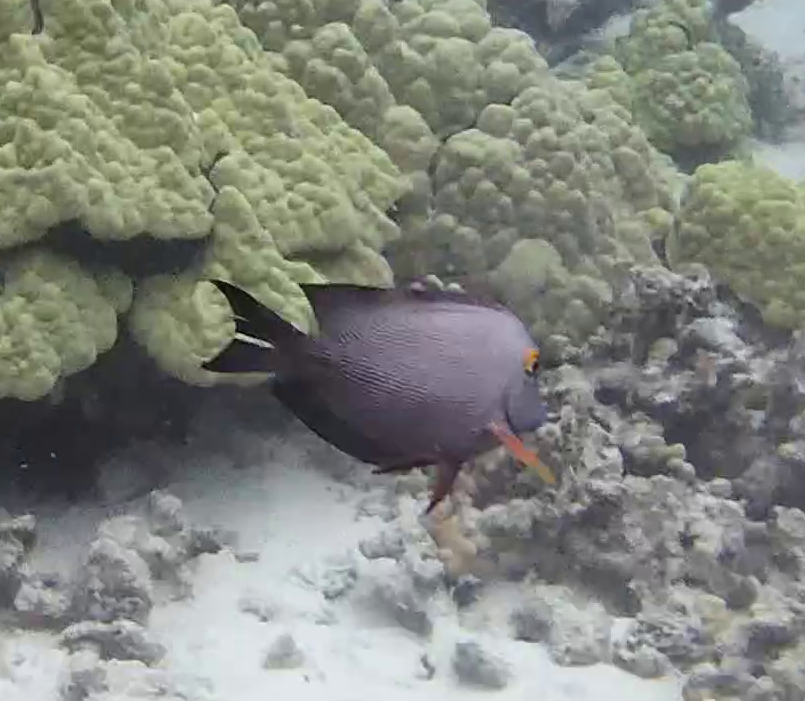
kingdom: Animalia
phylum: Chordata
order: Perciformes
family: Acanthuridae
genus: Ctenochaetus
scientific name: Ctenochaetus strigosus
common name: Bristletoothed surgeonfish
